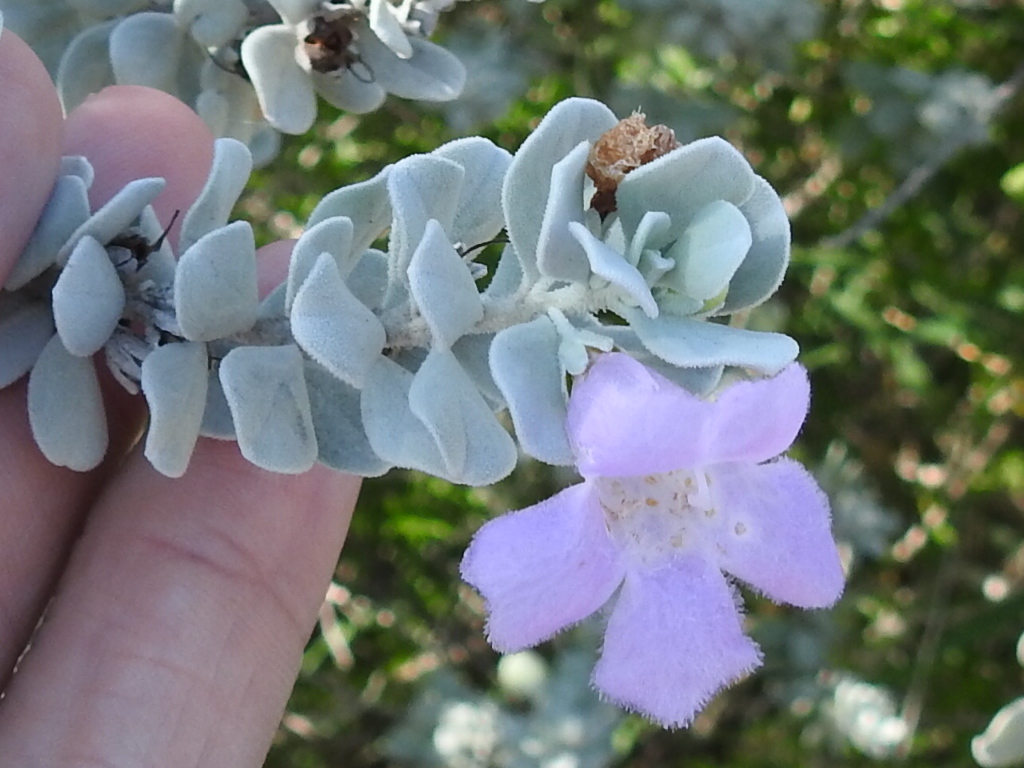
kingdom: Plantae
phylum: Tracheophyta
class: Magnoliopsida
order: Lamiales
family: Scrophulariaceae
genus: Leucophyllum
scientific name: Leucophyllum frutescens
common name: Texas silverleaf
